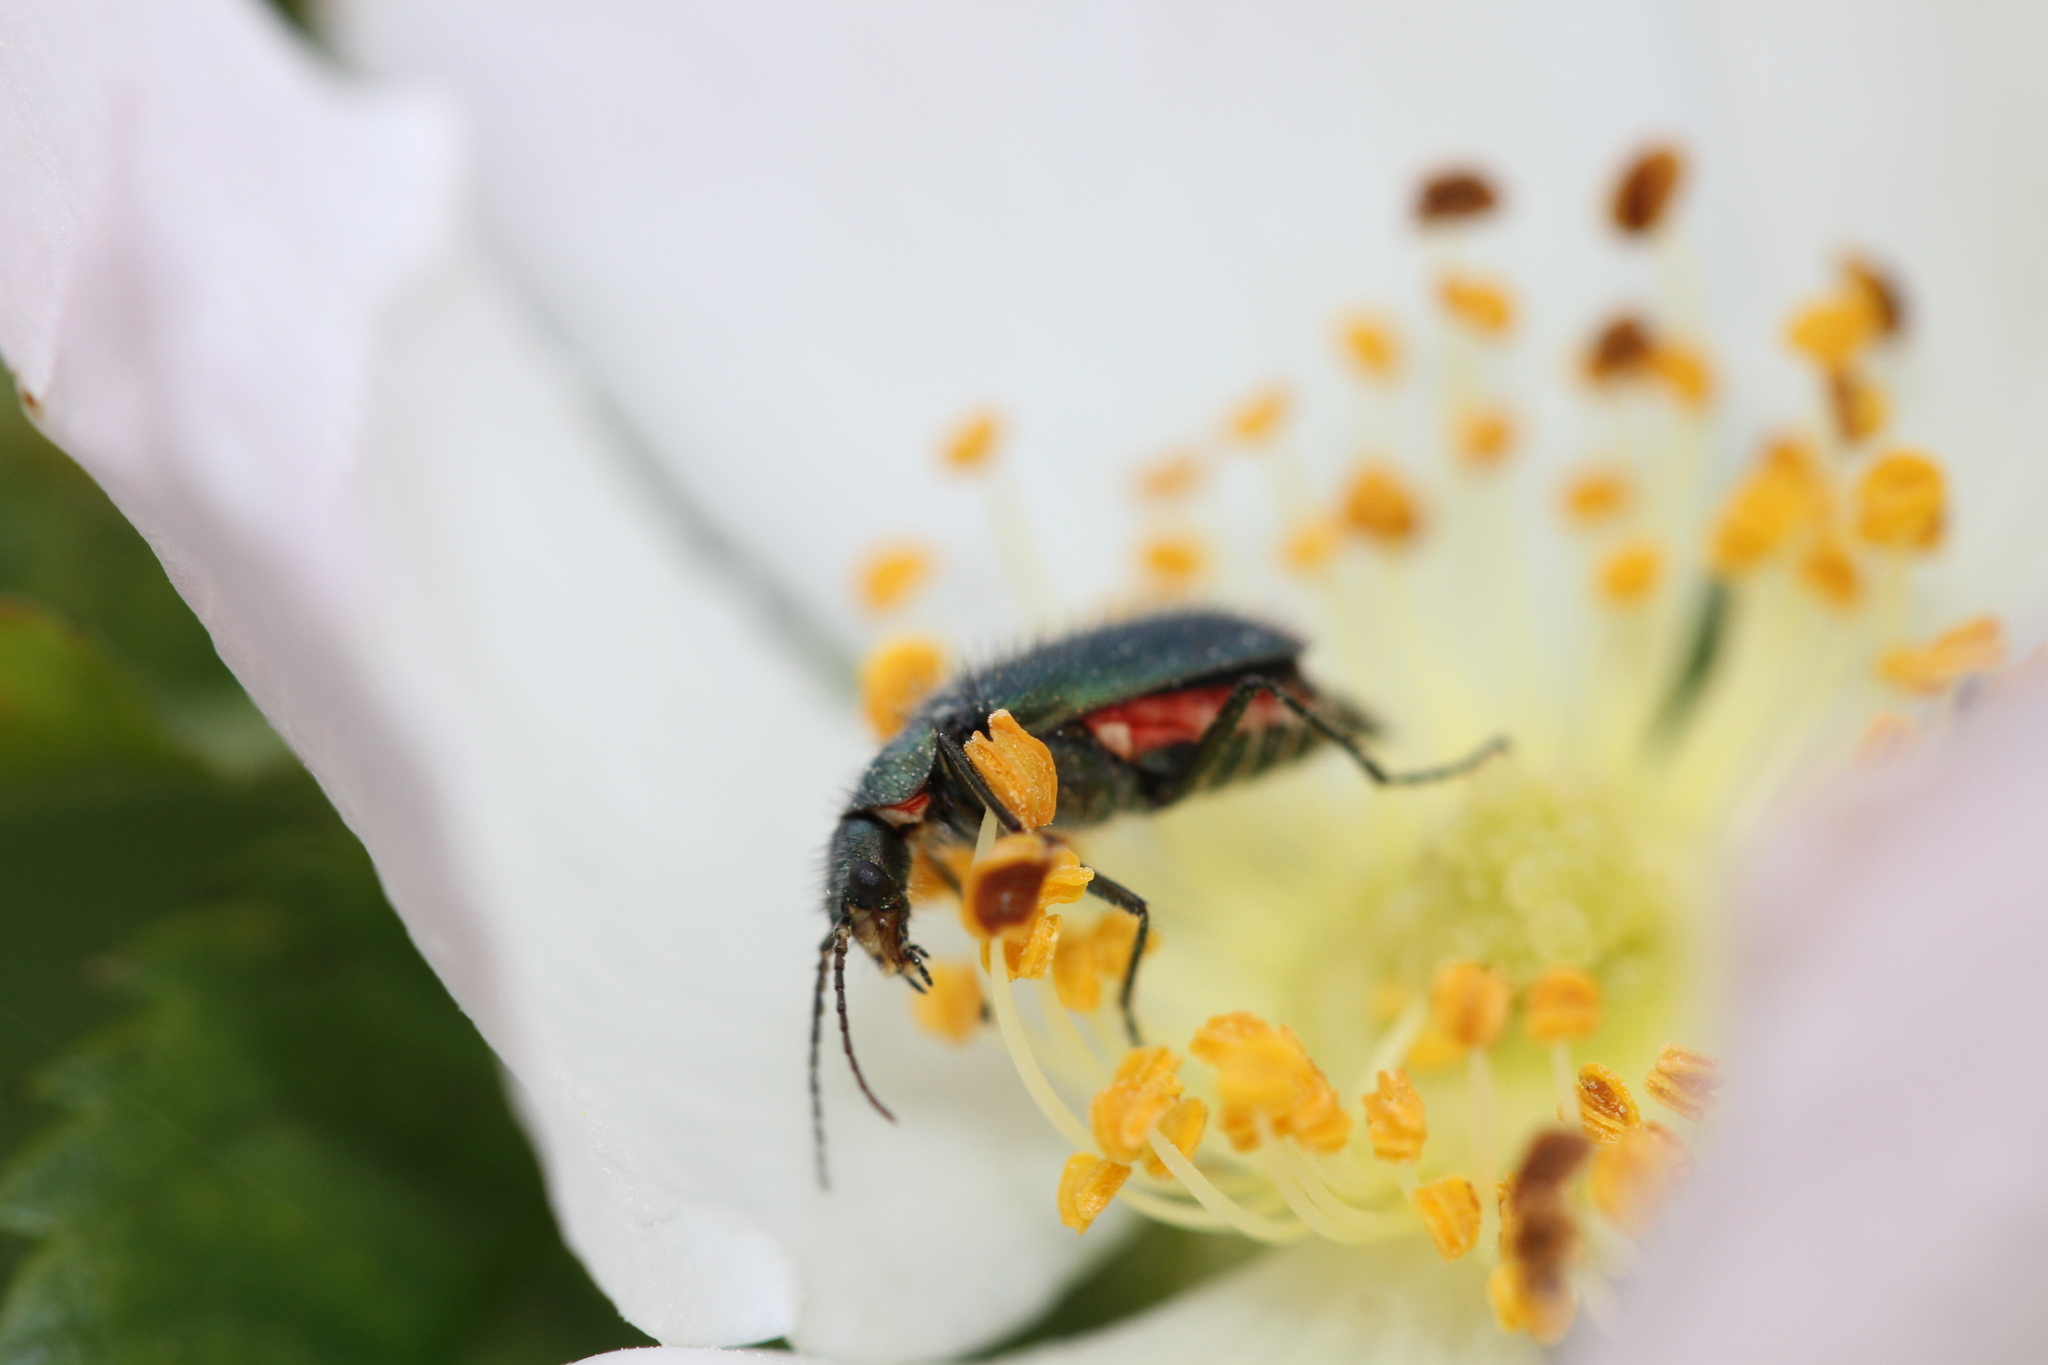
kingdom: Animalia
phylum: Arthropoda
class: Insecta
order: Coleoptera
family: Melyridae
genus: Malachius
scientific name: Malachius bipustulatus
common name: Malachite beetle
